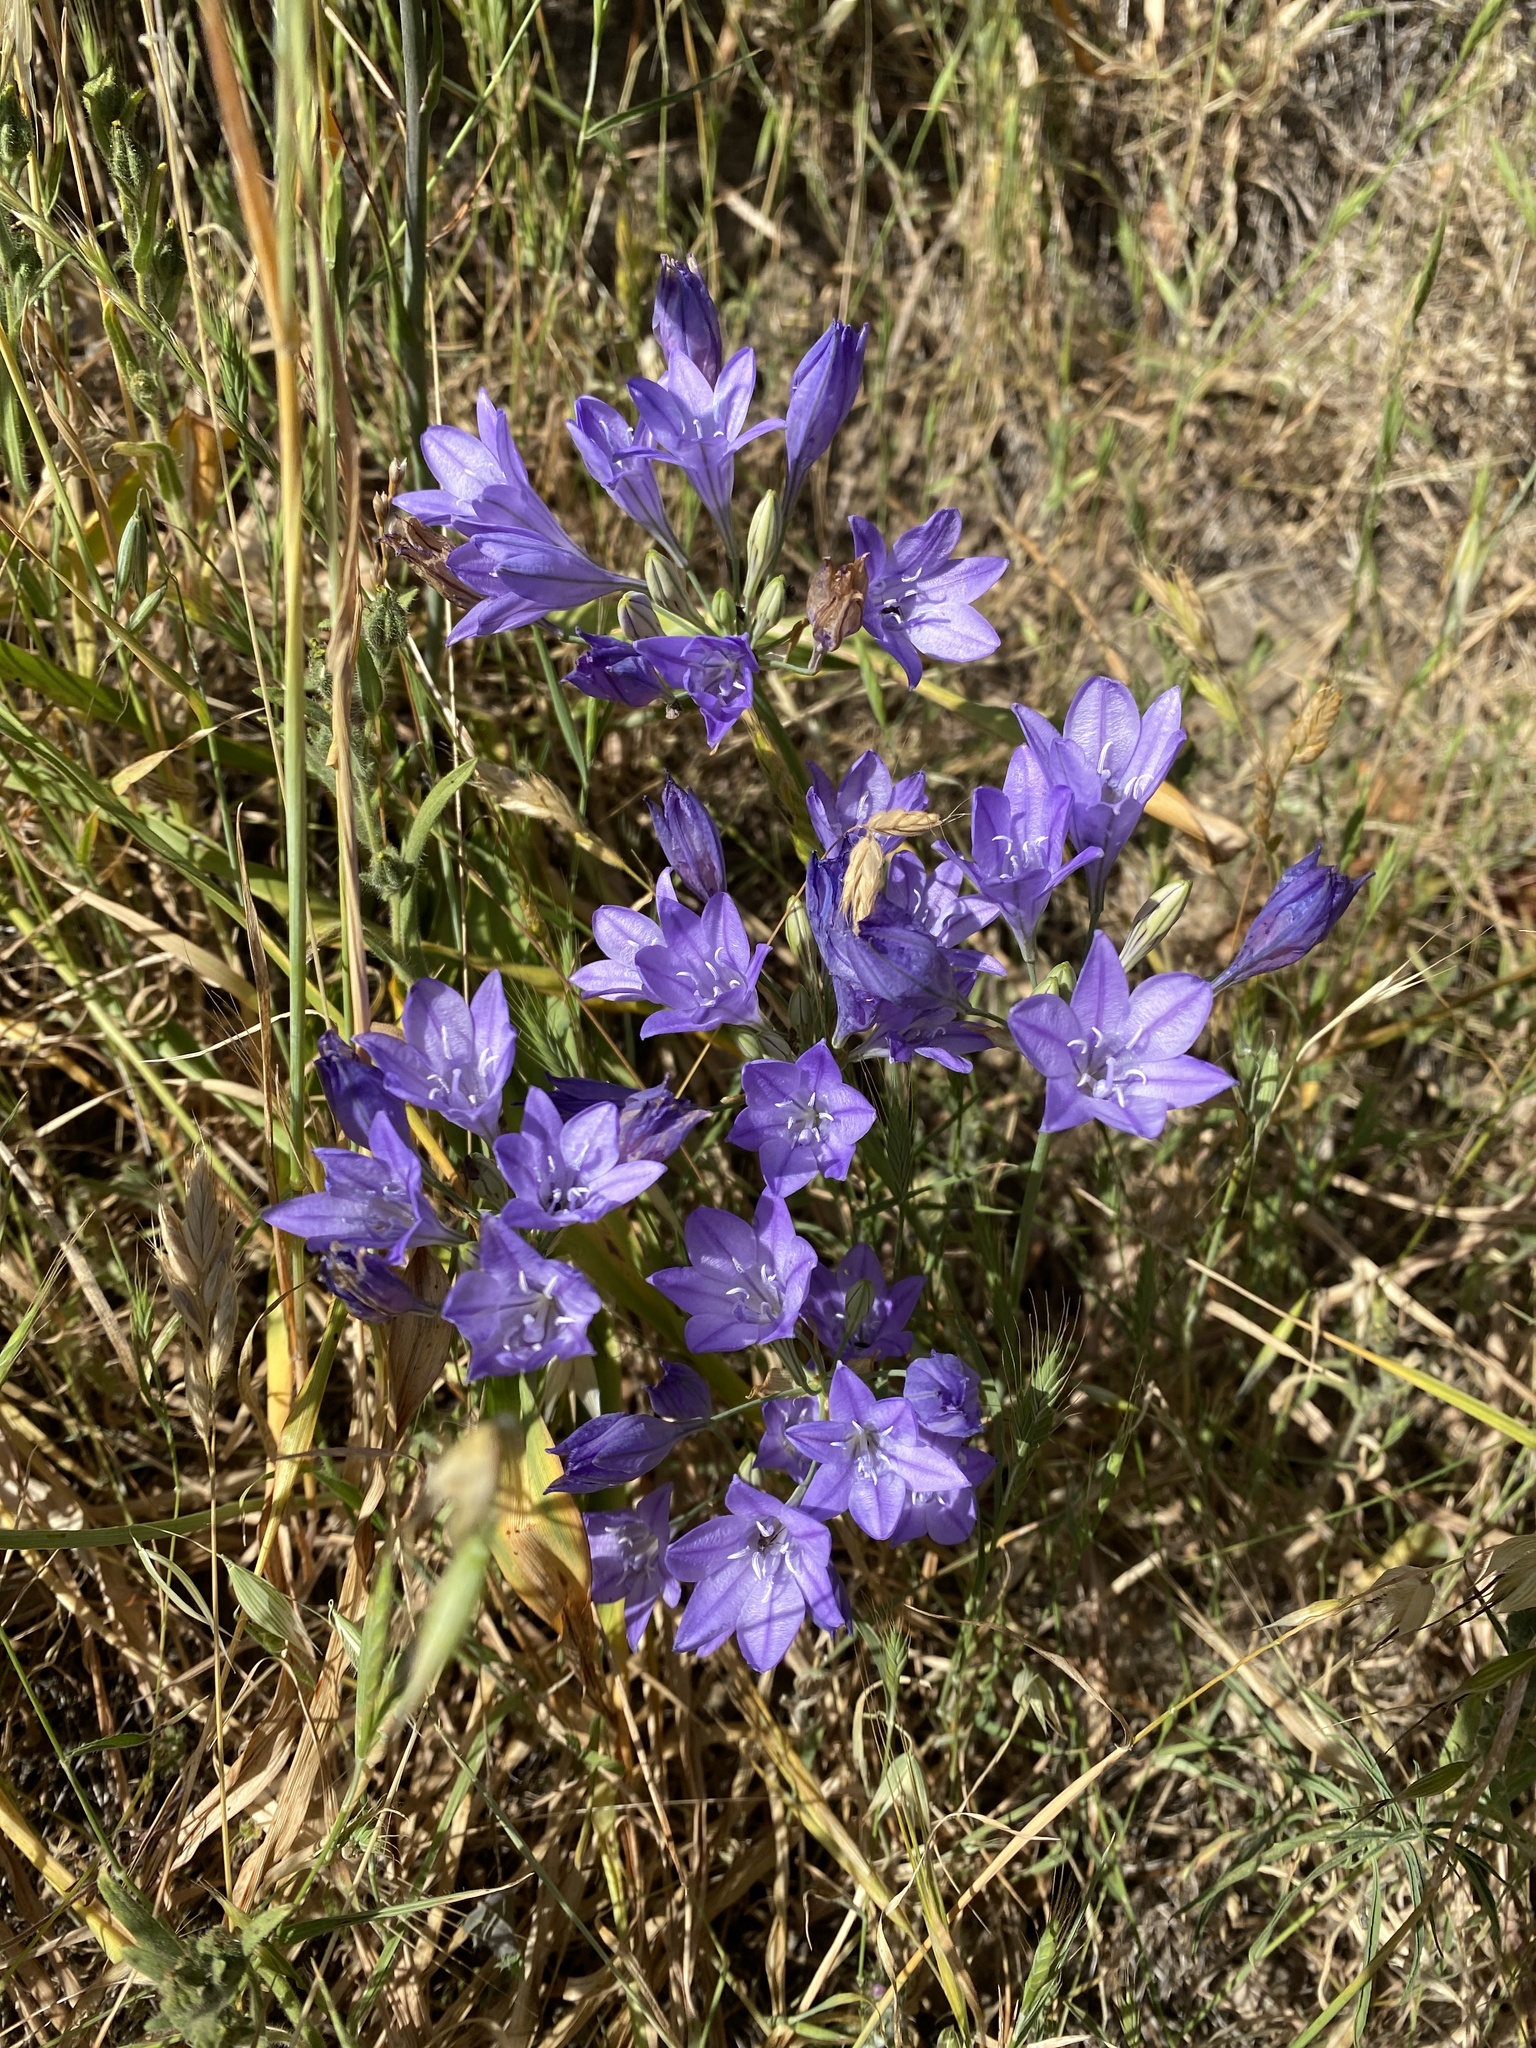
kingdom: Plantae
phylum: Tracheophyta
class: Liliopsida
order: Asparagales
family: Asparagaceae
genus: Triteleia
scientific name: Triteleia laxa
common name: Triplet-lily
